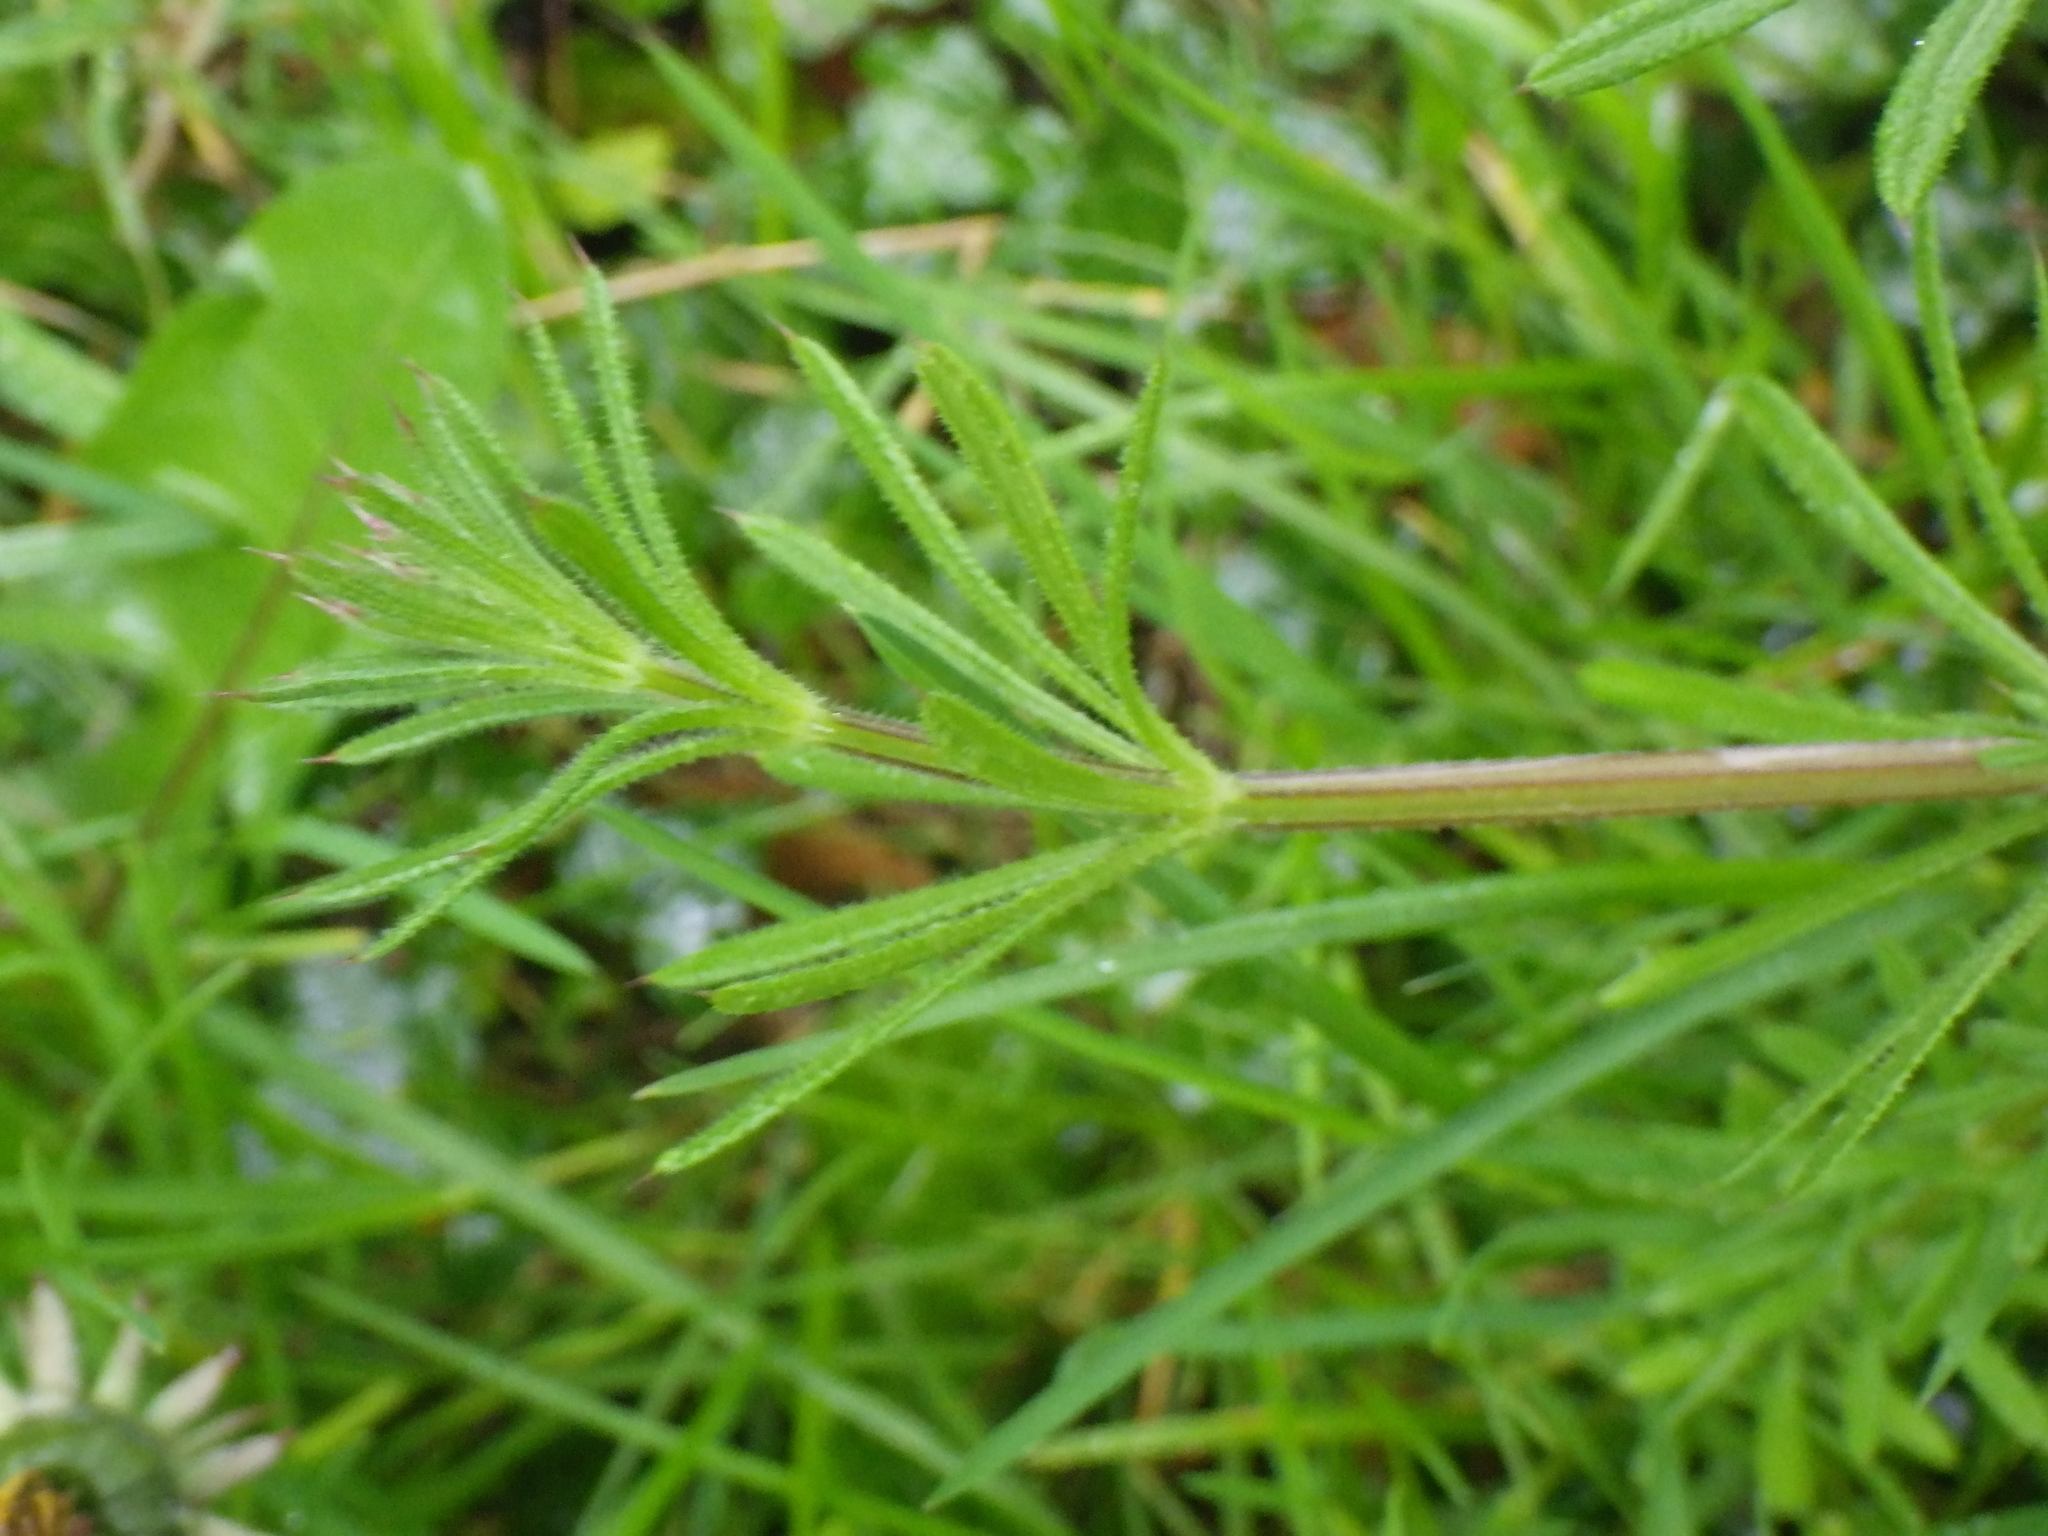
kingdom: Plantae
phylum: Tracheophyta
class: Magnoliopsida
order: Gentianales
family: Rubiaceae
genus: Galium
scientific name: Galium aparine
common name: Cleavers
